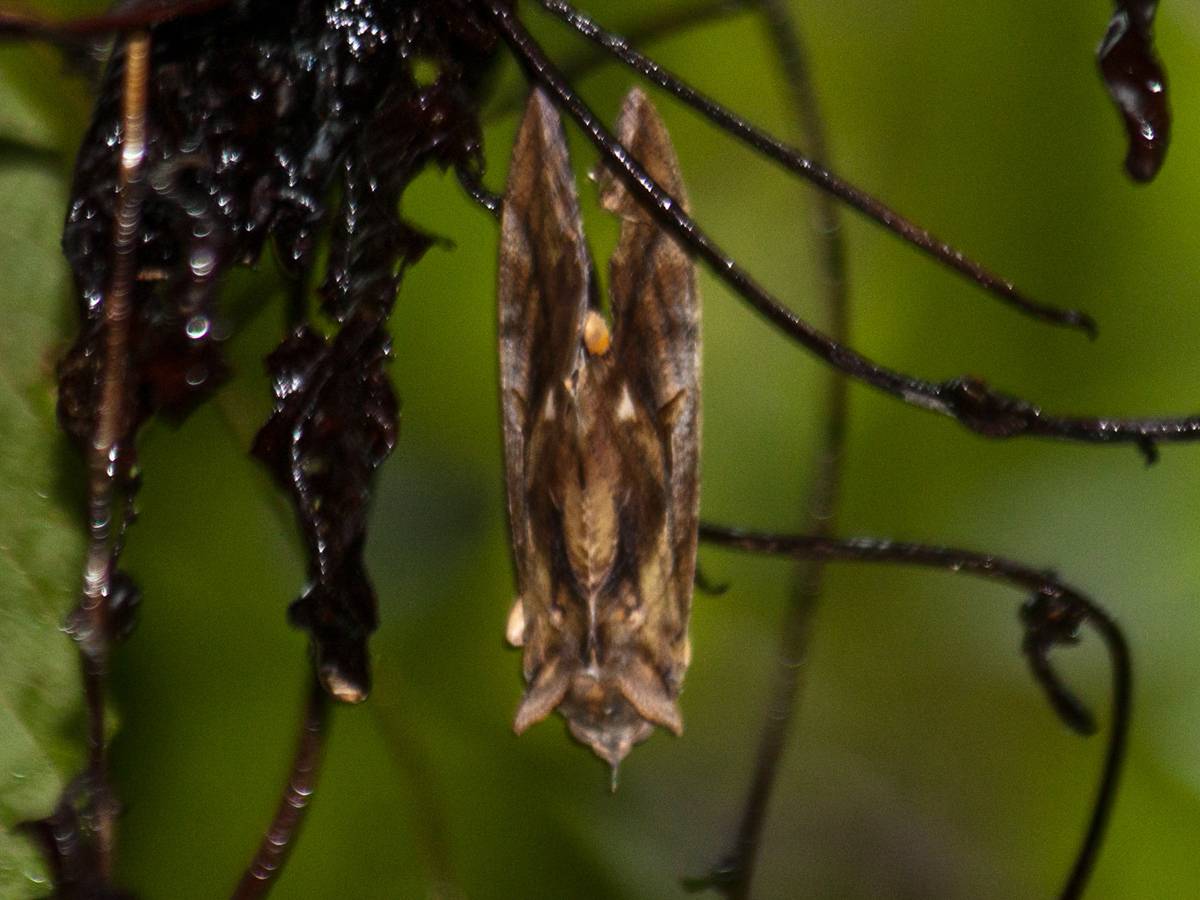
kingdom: Animalia
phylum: Arthropoda
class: Insecta
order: Lepidoptera
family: Erebidae
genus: Eudocima
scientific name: Eudocima phalonia
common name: Wasp
